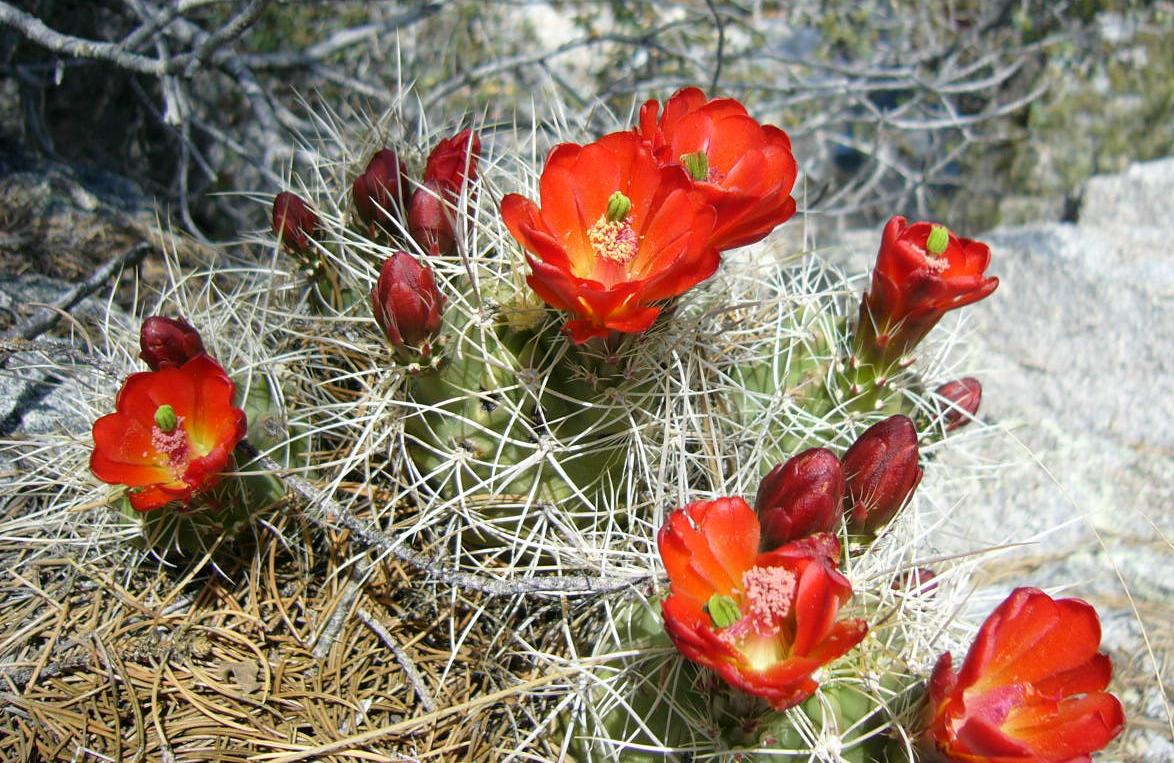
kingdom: Plantae
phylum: Tracheophyta
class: Magnoliopsida
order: Caryophyllales
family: Cactaceae
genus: Echinocereus
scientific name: Echinocereus triglochidiatus
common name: Claretcup hedgehog
